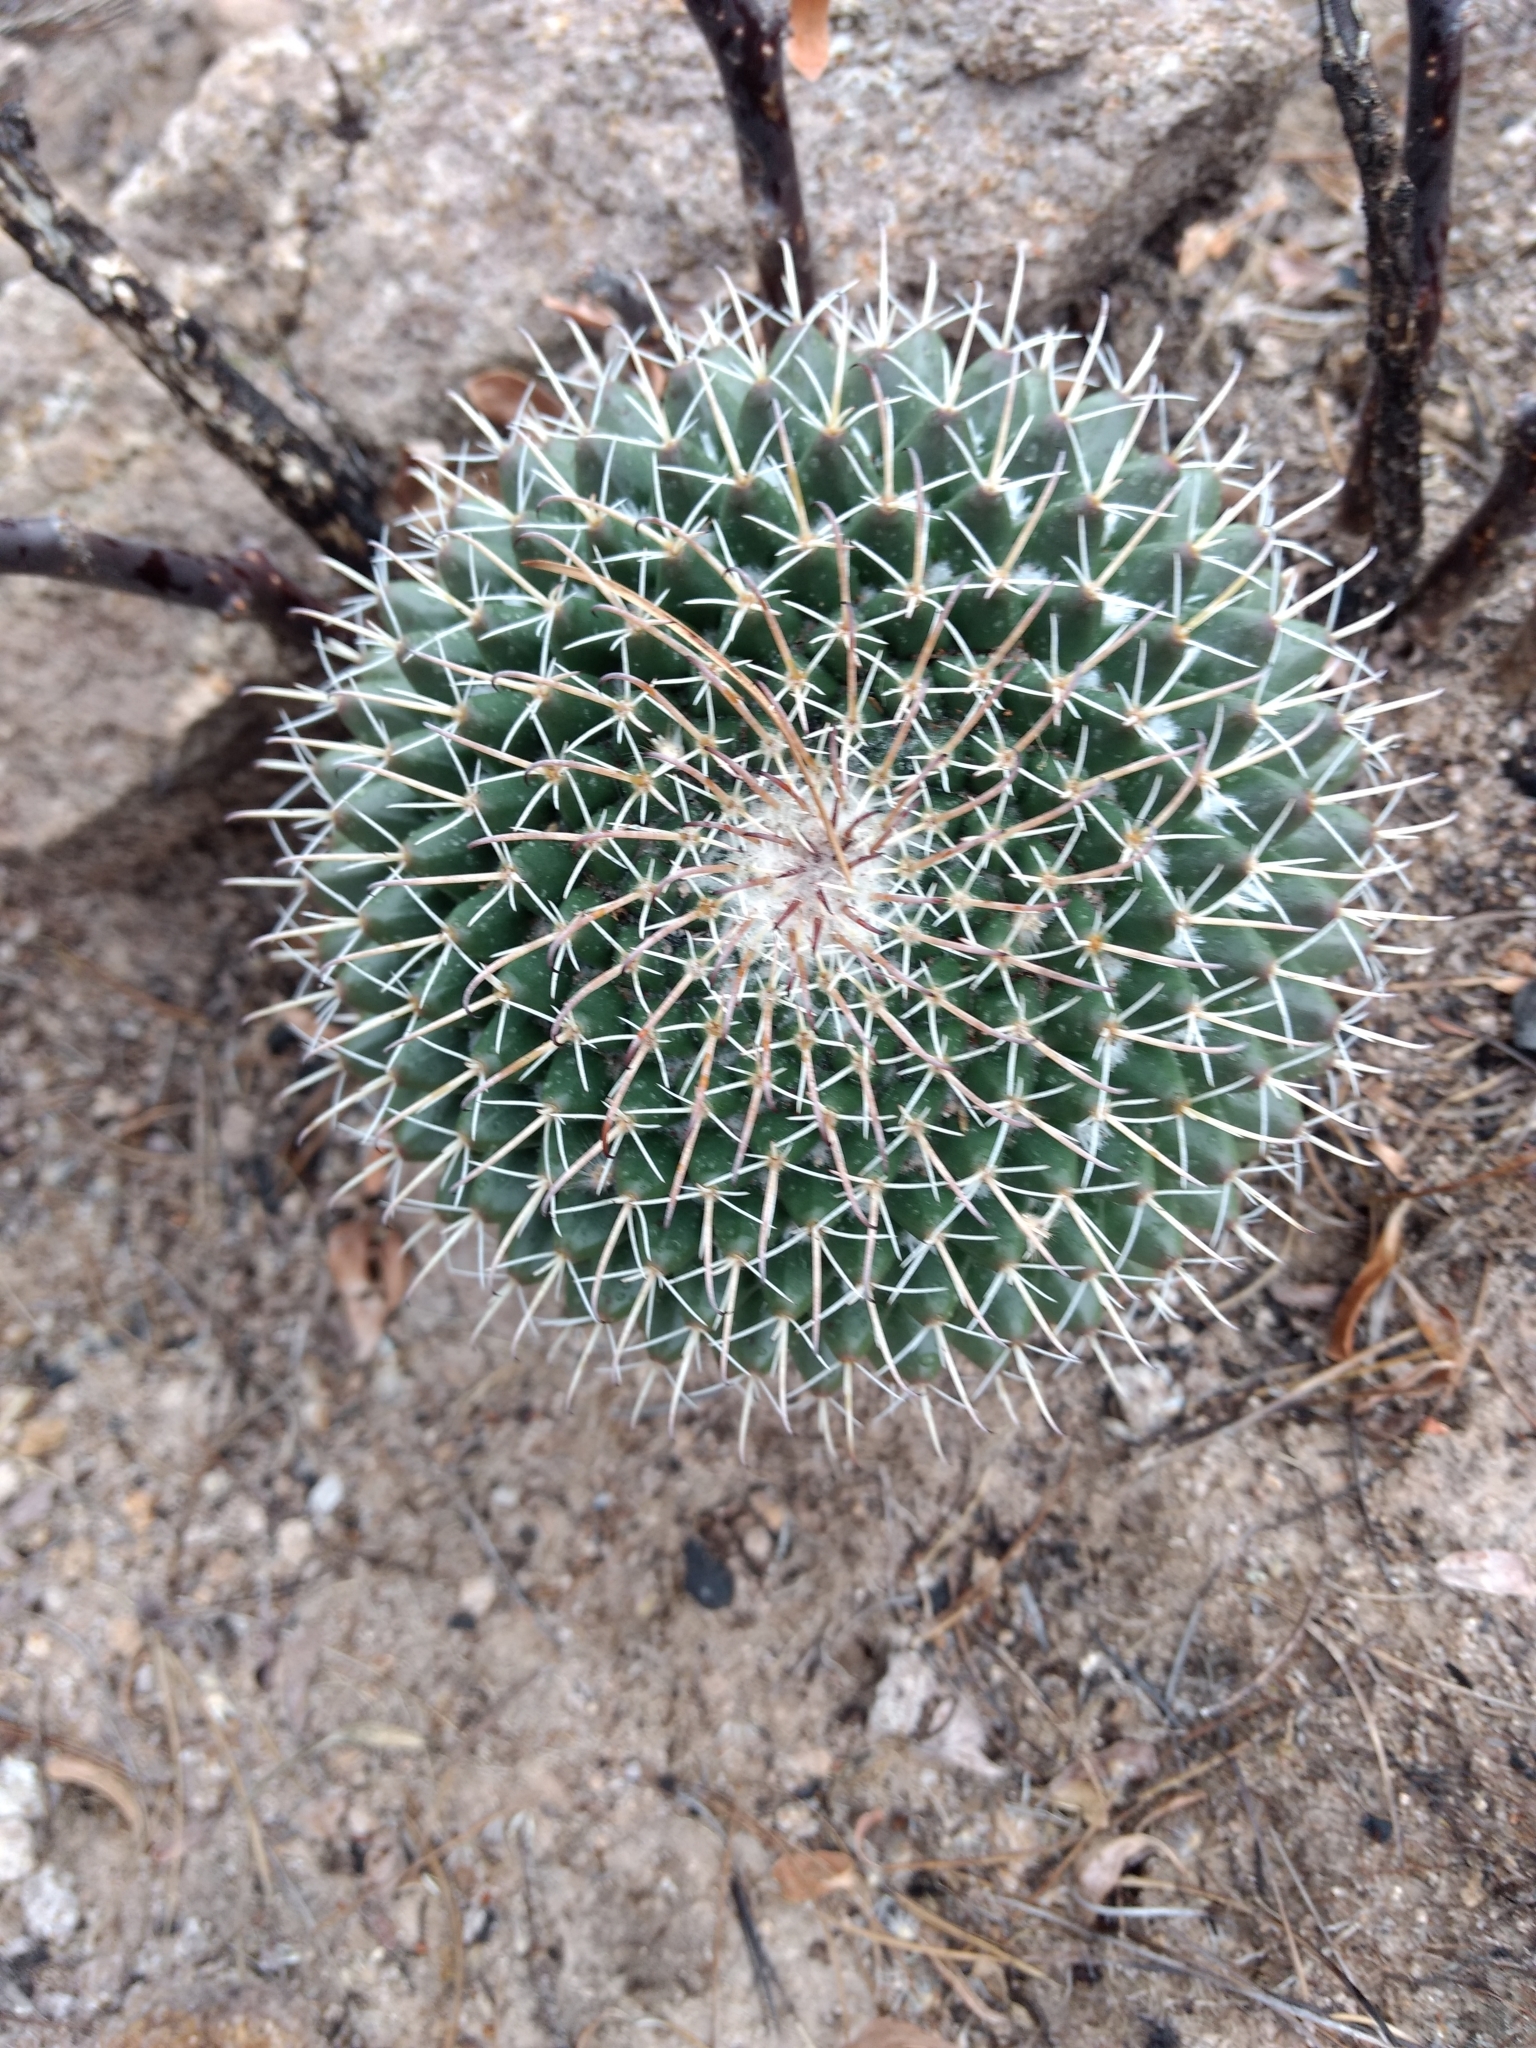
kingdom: Plantae
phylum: Tracheophyta
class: Magnoliopsida
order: Caryophyllales
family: Cactaceae
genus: Mammillaria
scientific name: Mammillaria uncinata
